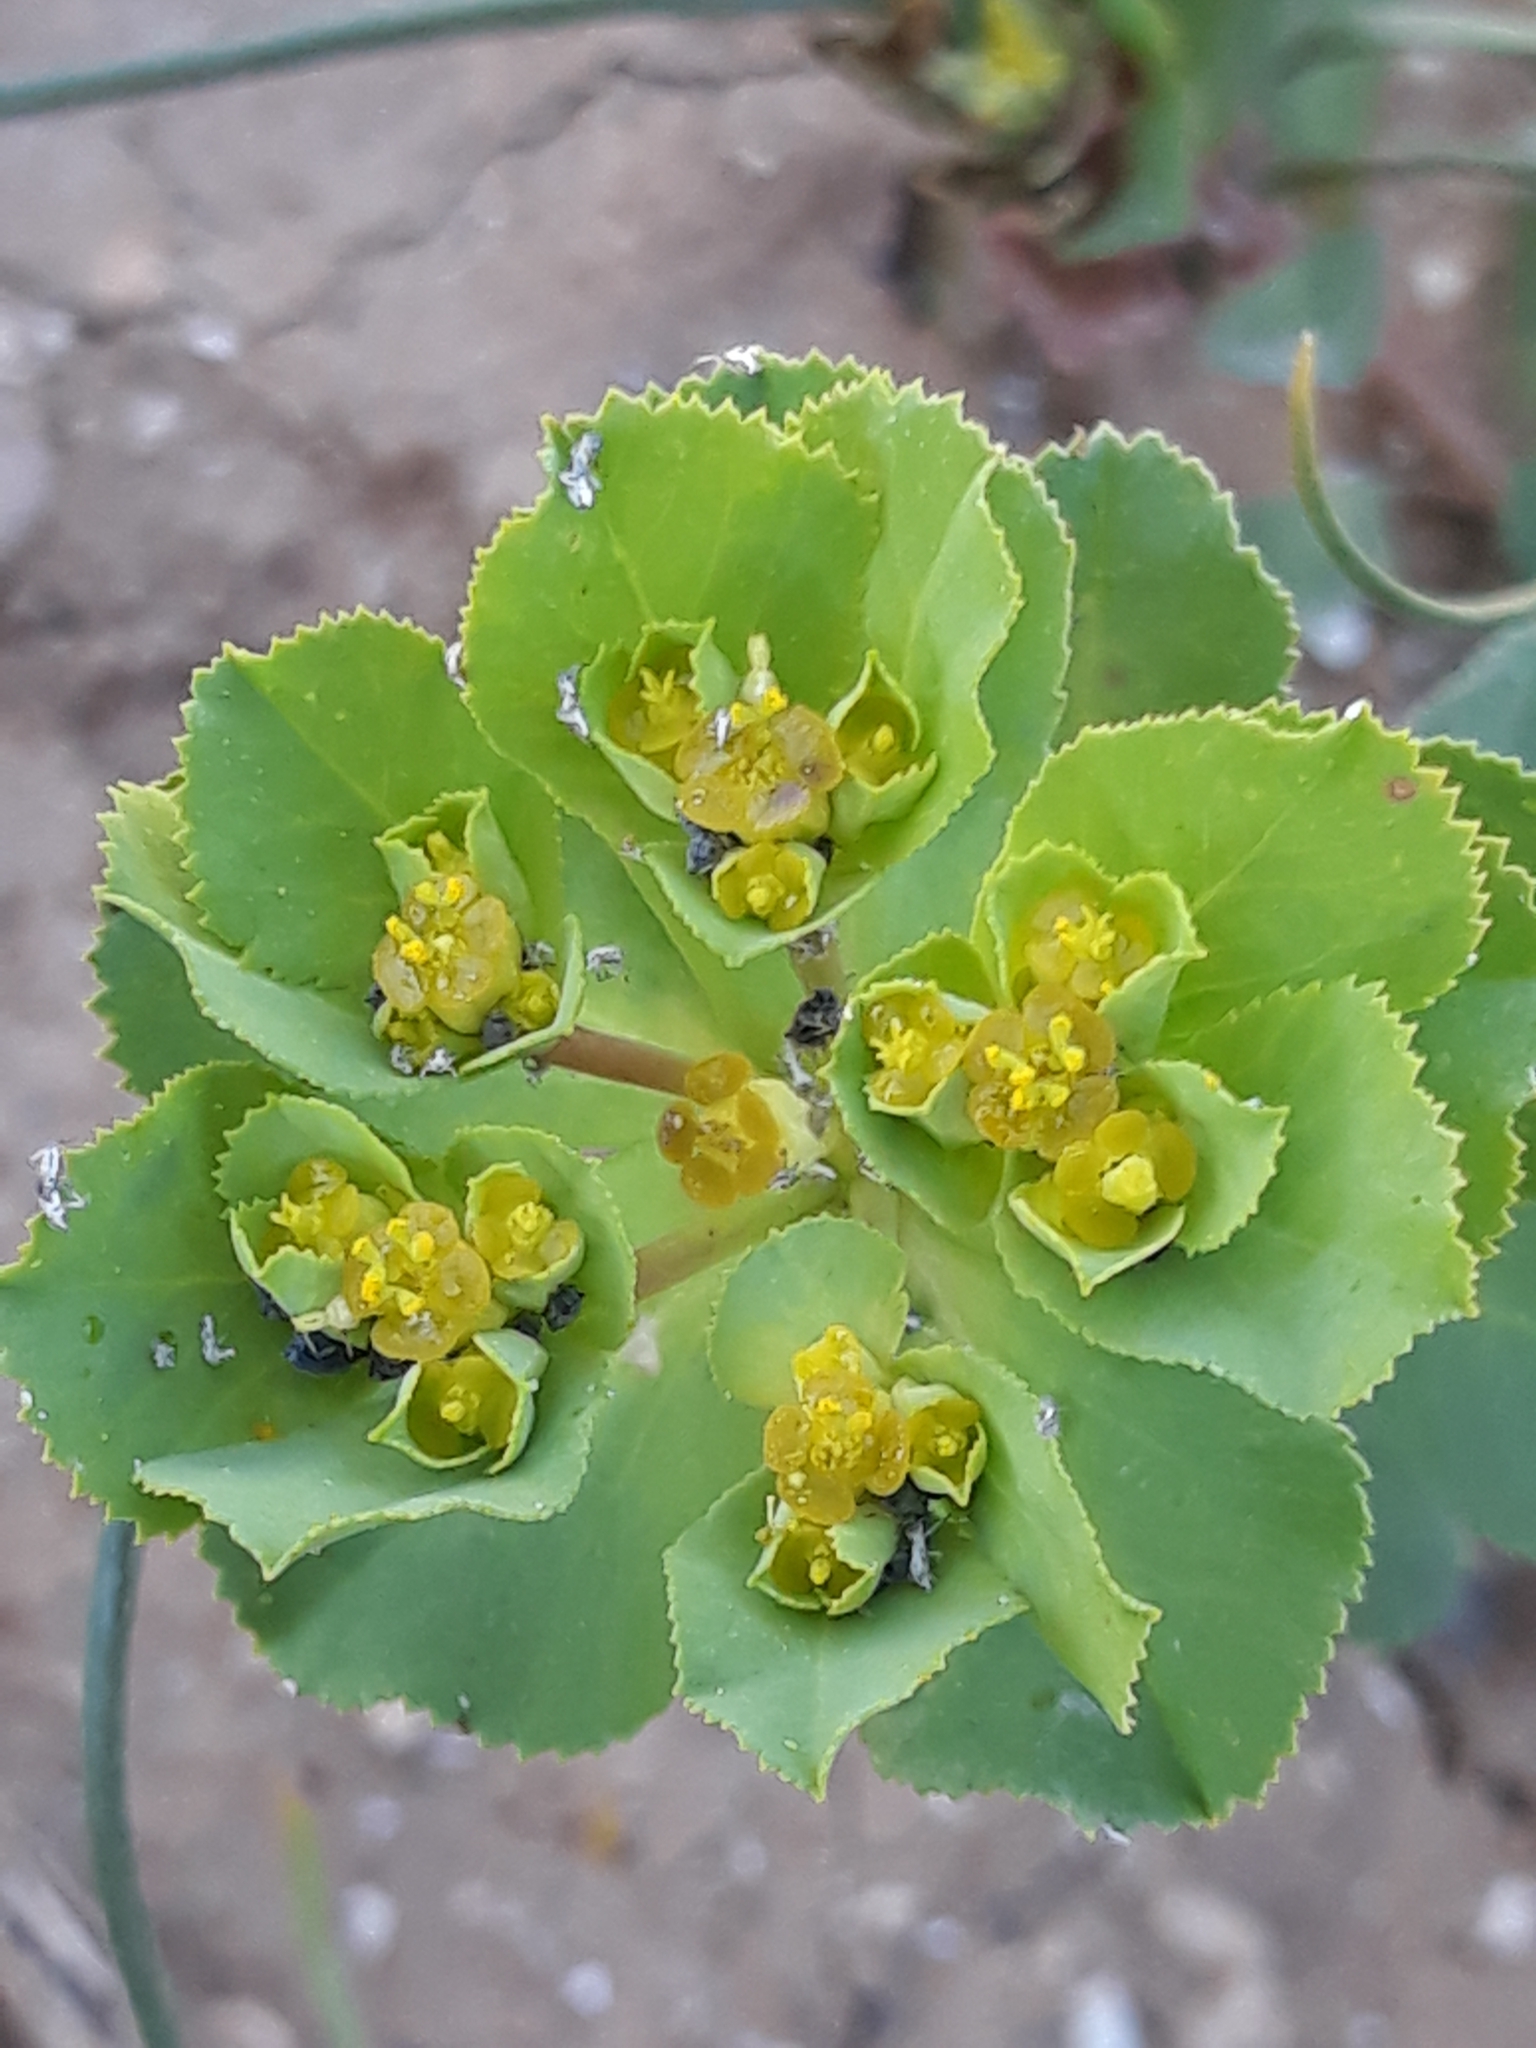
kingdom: Plantae
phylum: Tracheophyta
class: Magnoliopsida
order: Malpighiales
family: Euphorbiaceae
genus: Euphorbia
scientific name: Euphorbia helioscopia
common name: Sun spurge
